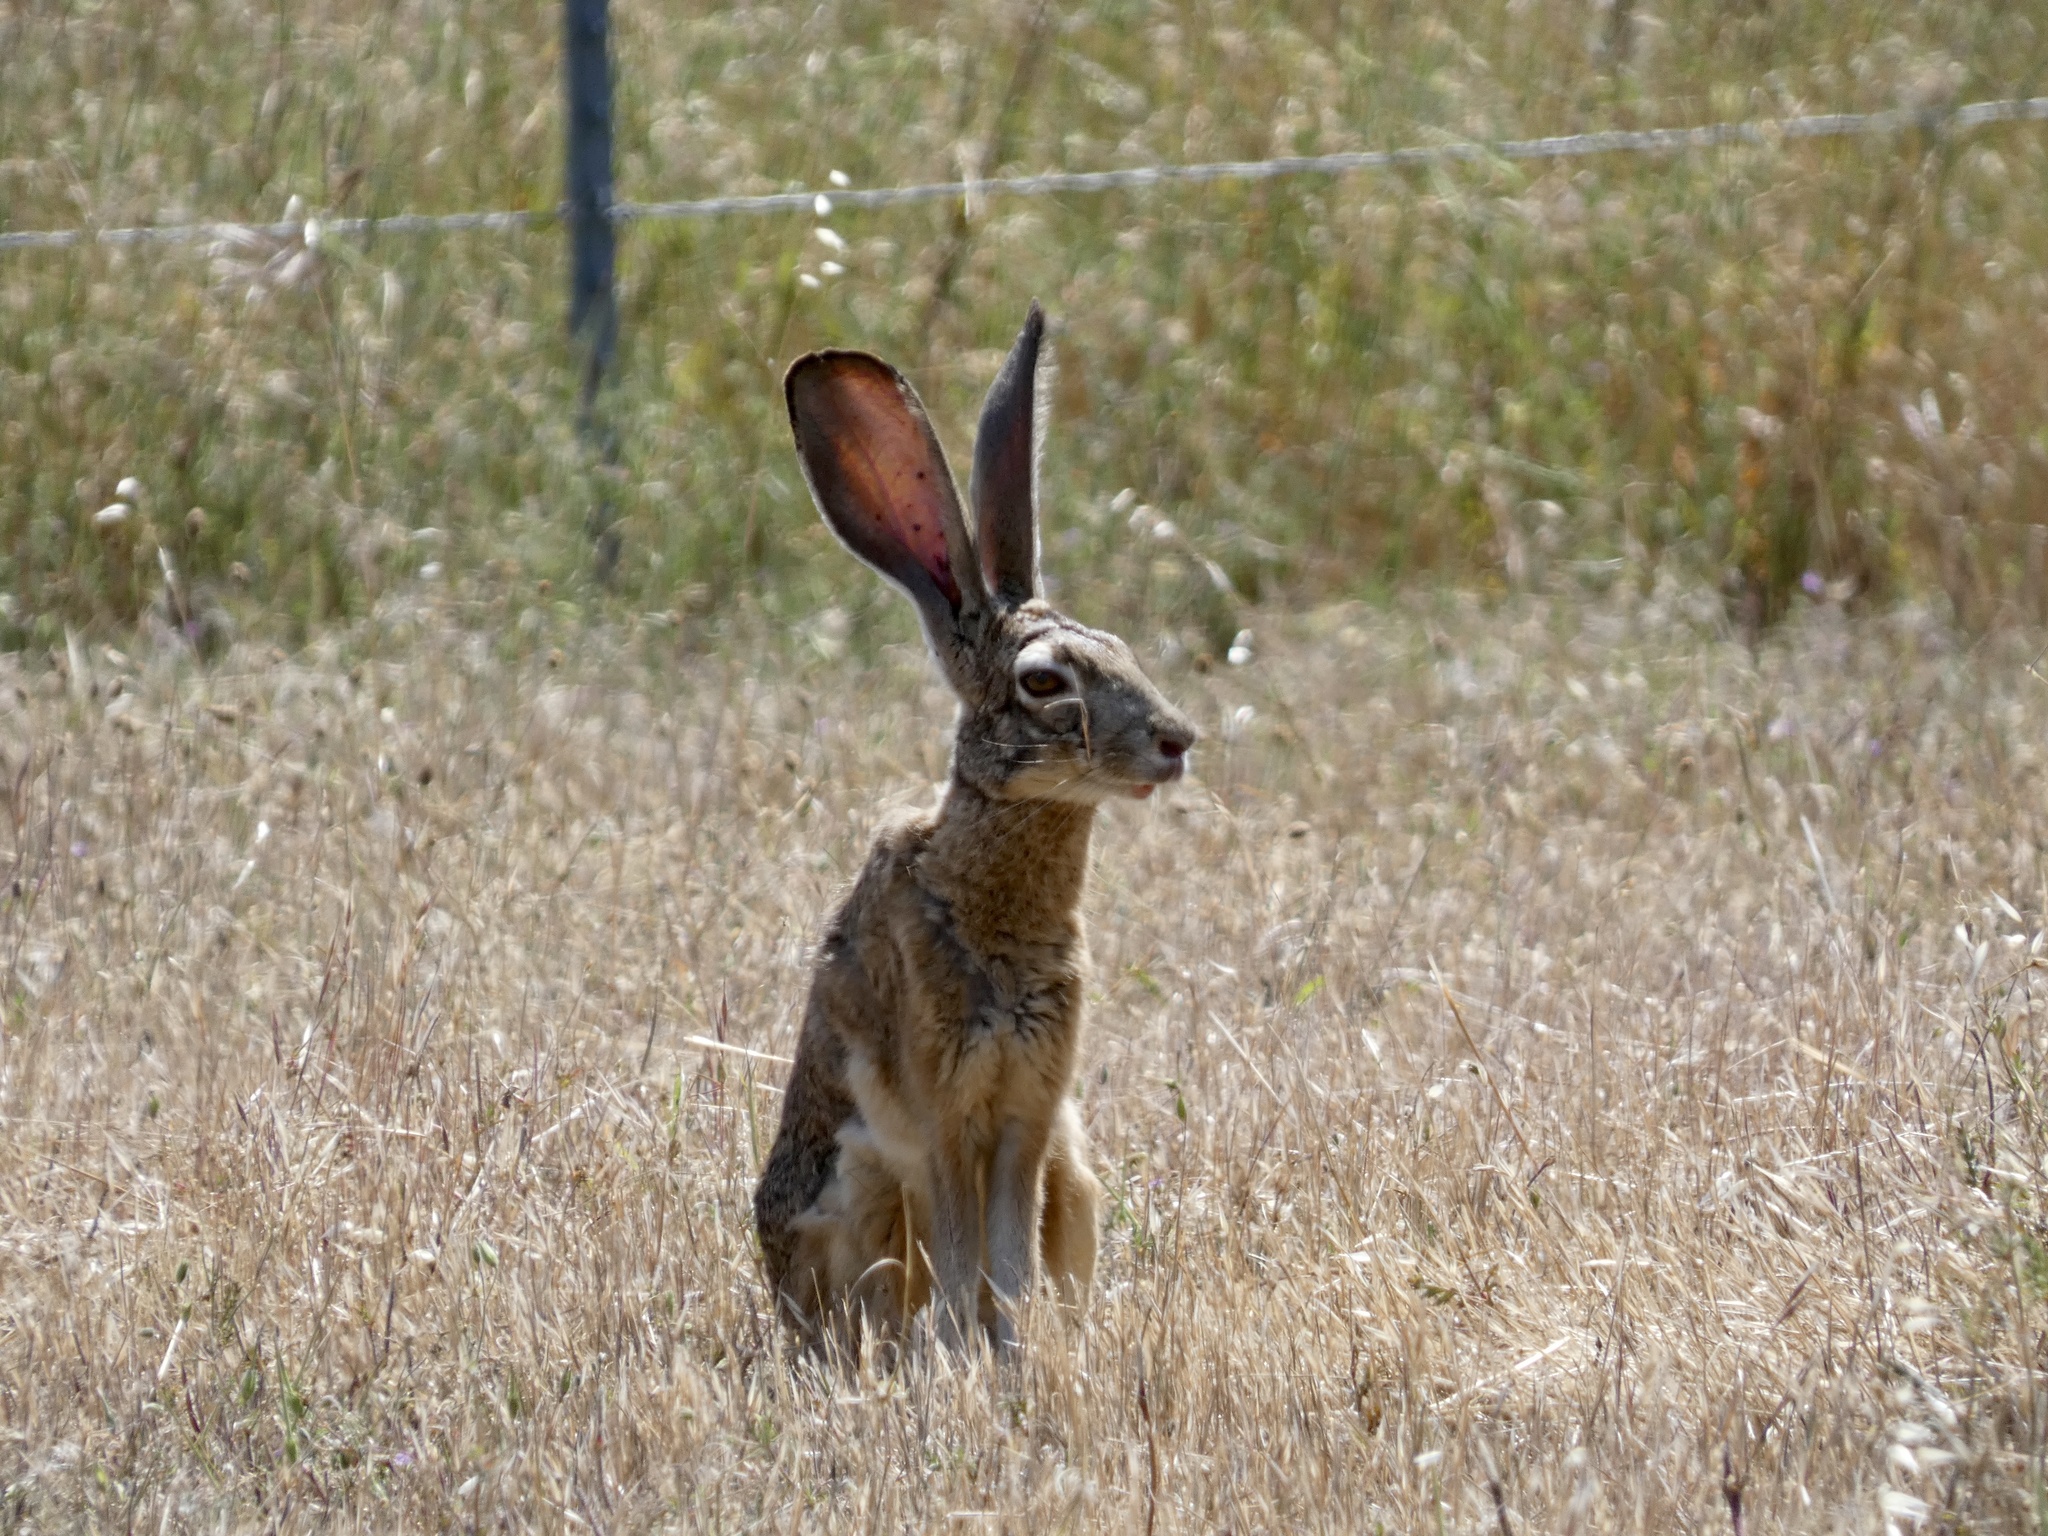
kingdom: Animalia
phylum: Chordata
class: Mammalia
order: Lagomorpha
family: Leporidae
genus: Lepus
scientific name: Lepus californicus
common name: Black-tailed jackrabbit
